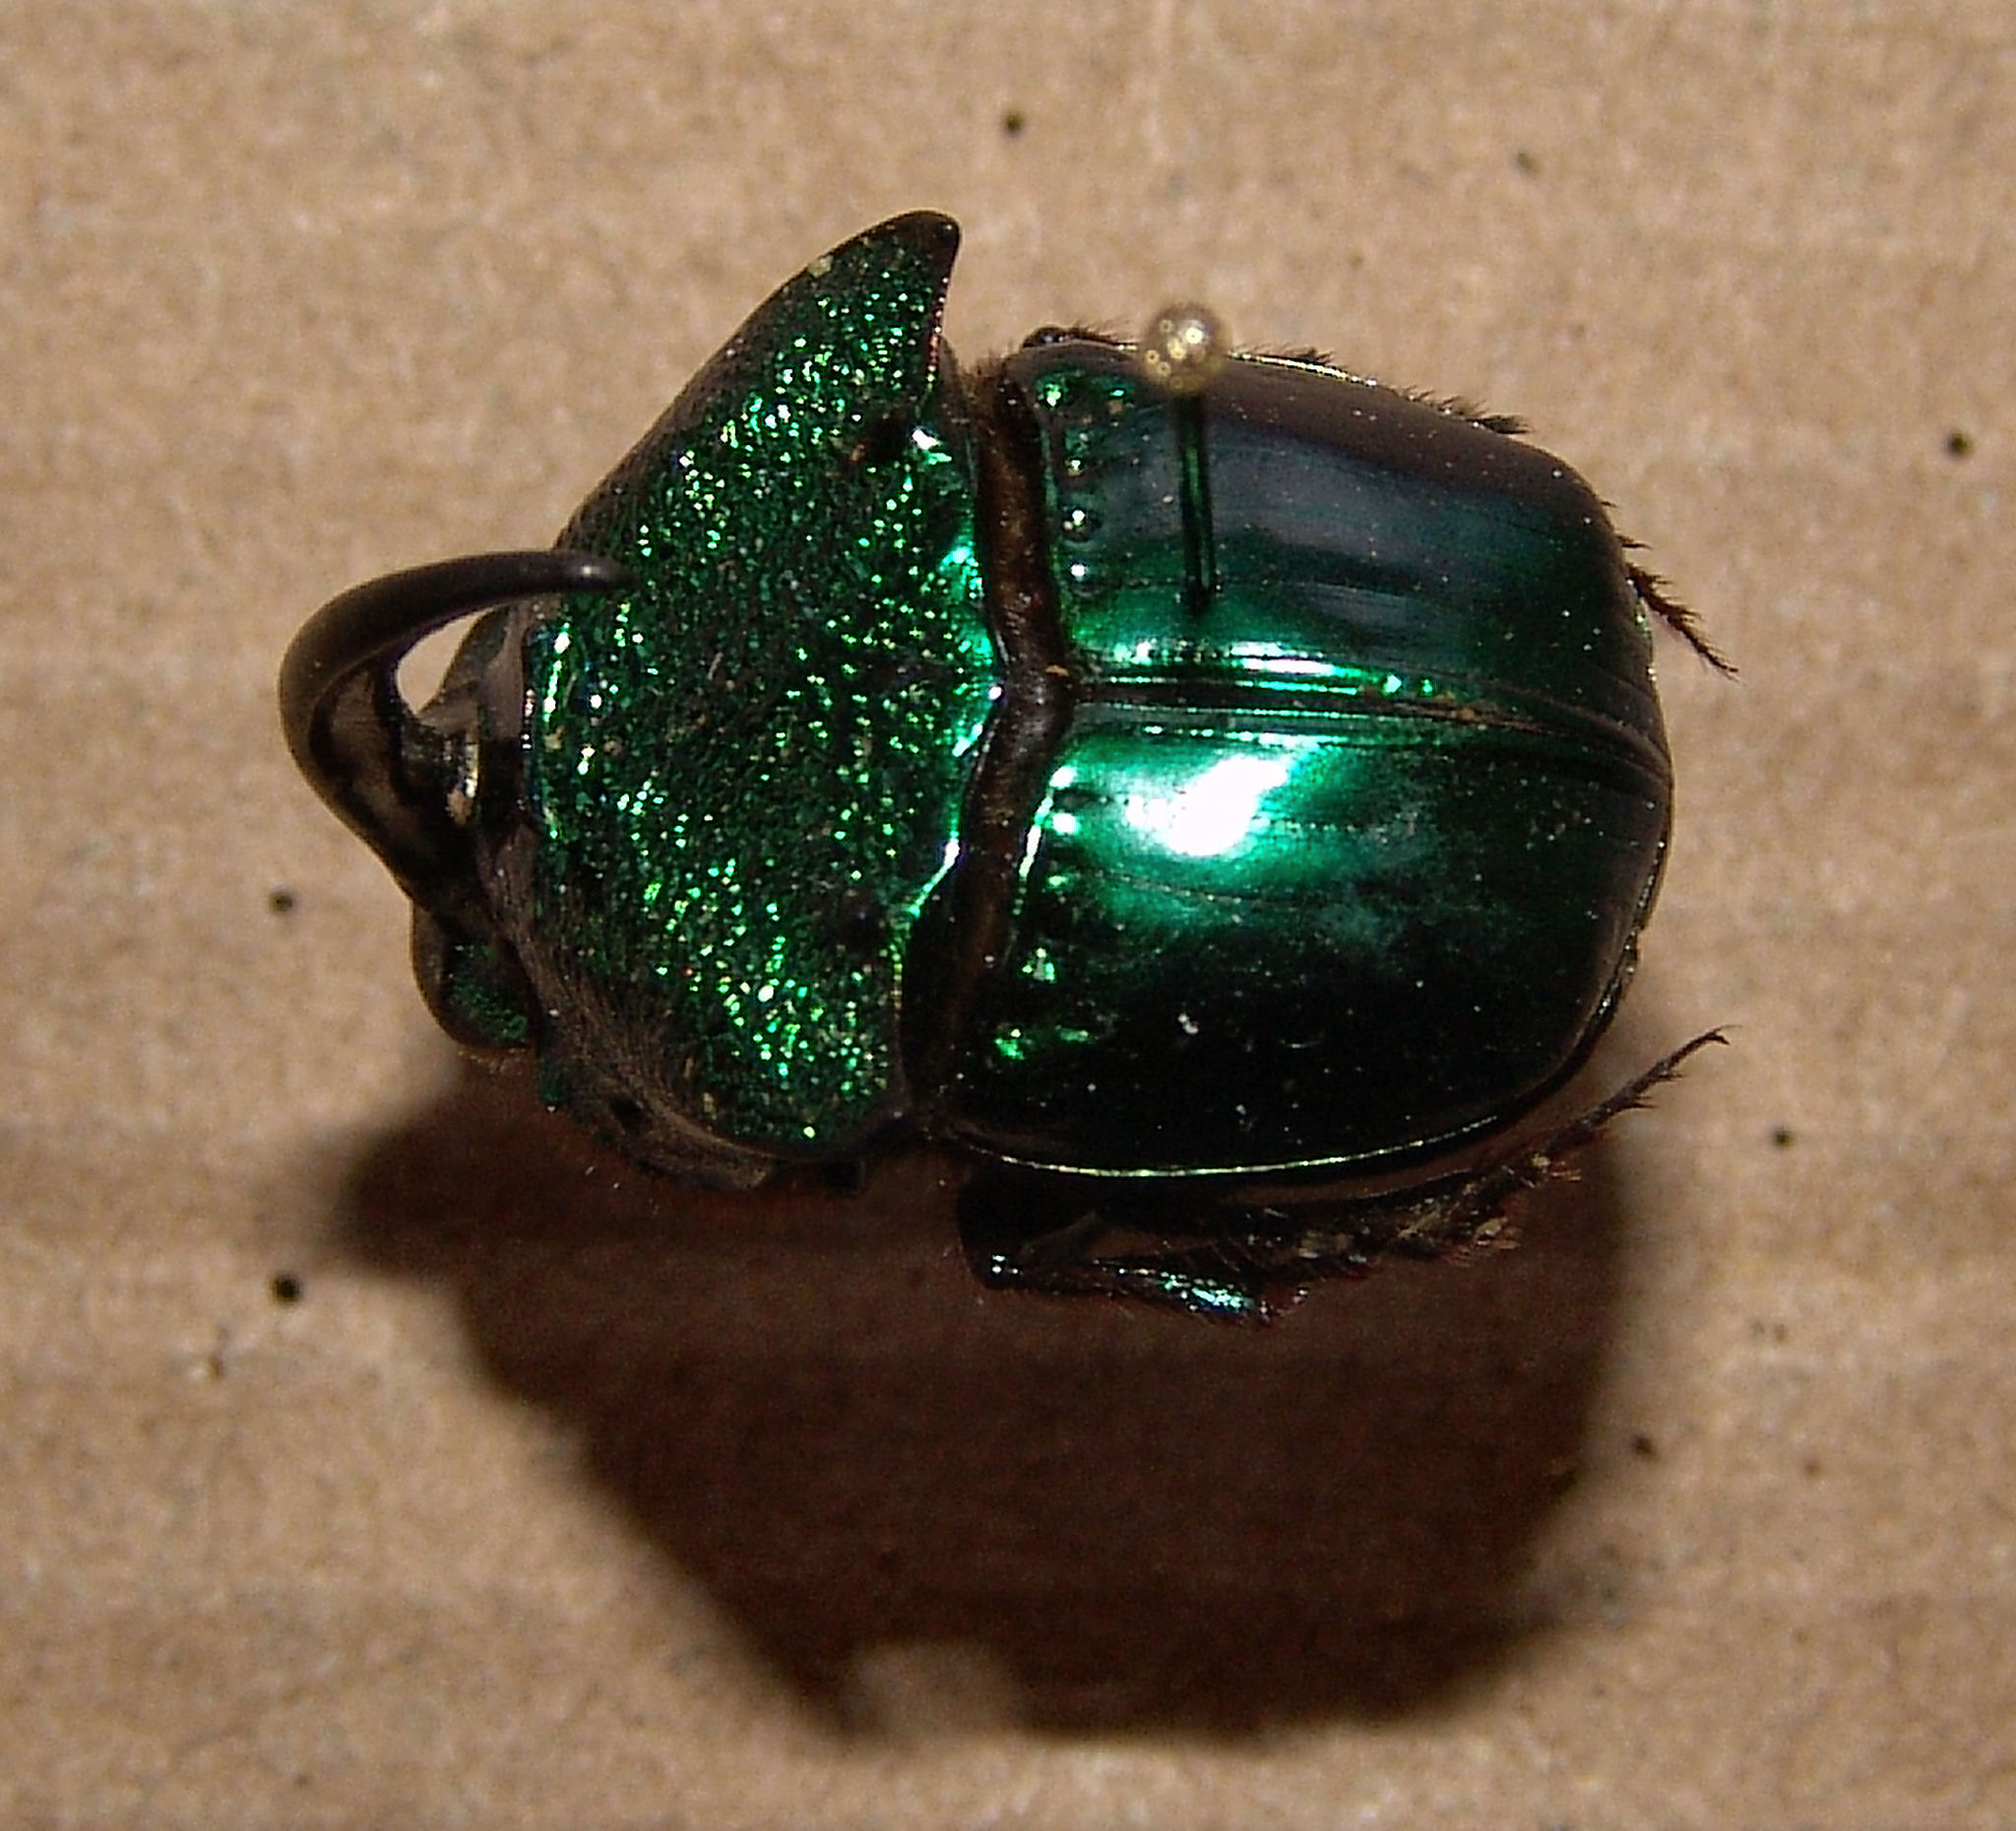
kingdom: Animalia
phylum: Arthropoda
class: Insecta
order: Coleoptera
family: Scarabaeidae
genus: Phanaeus
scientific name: Phanaeus borealis
